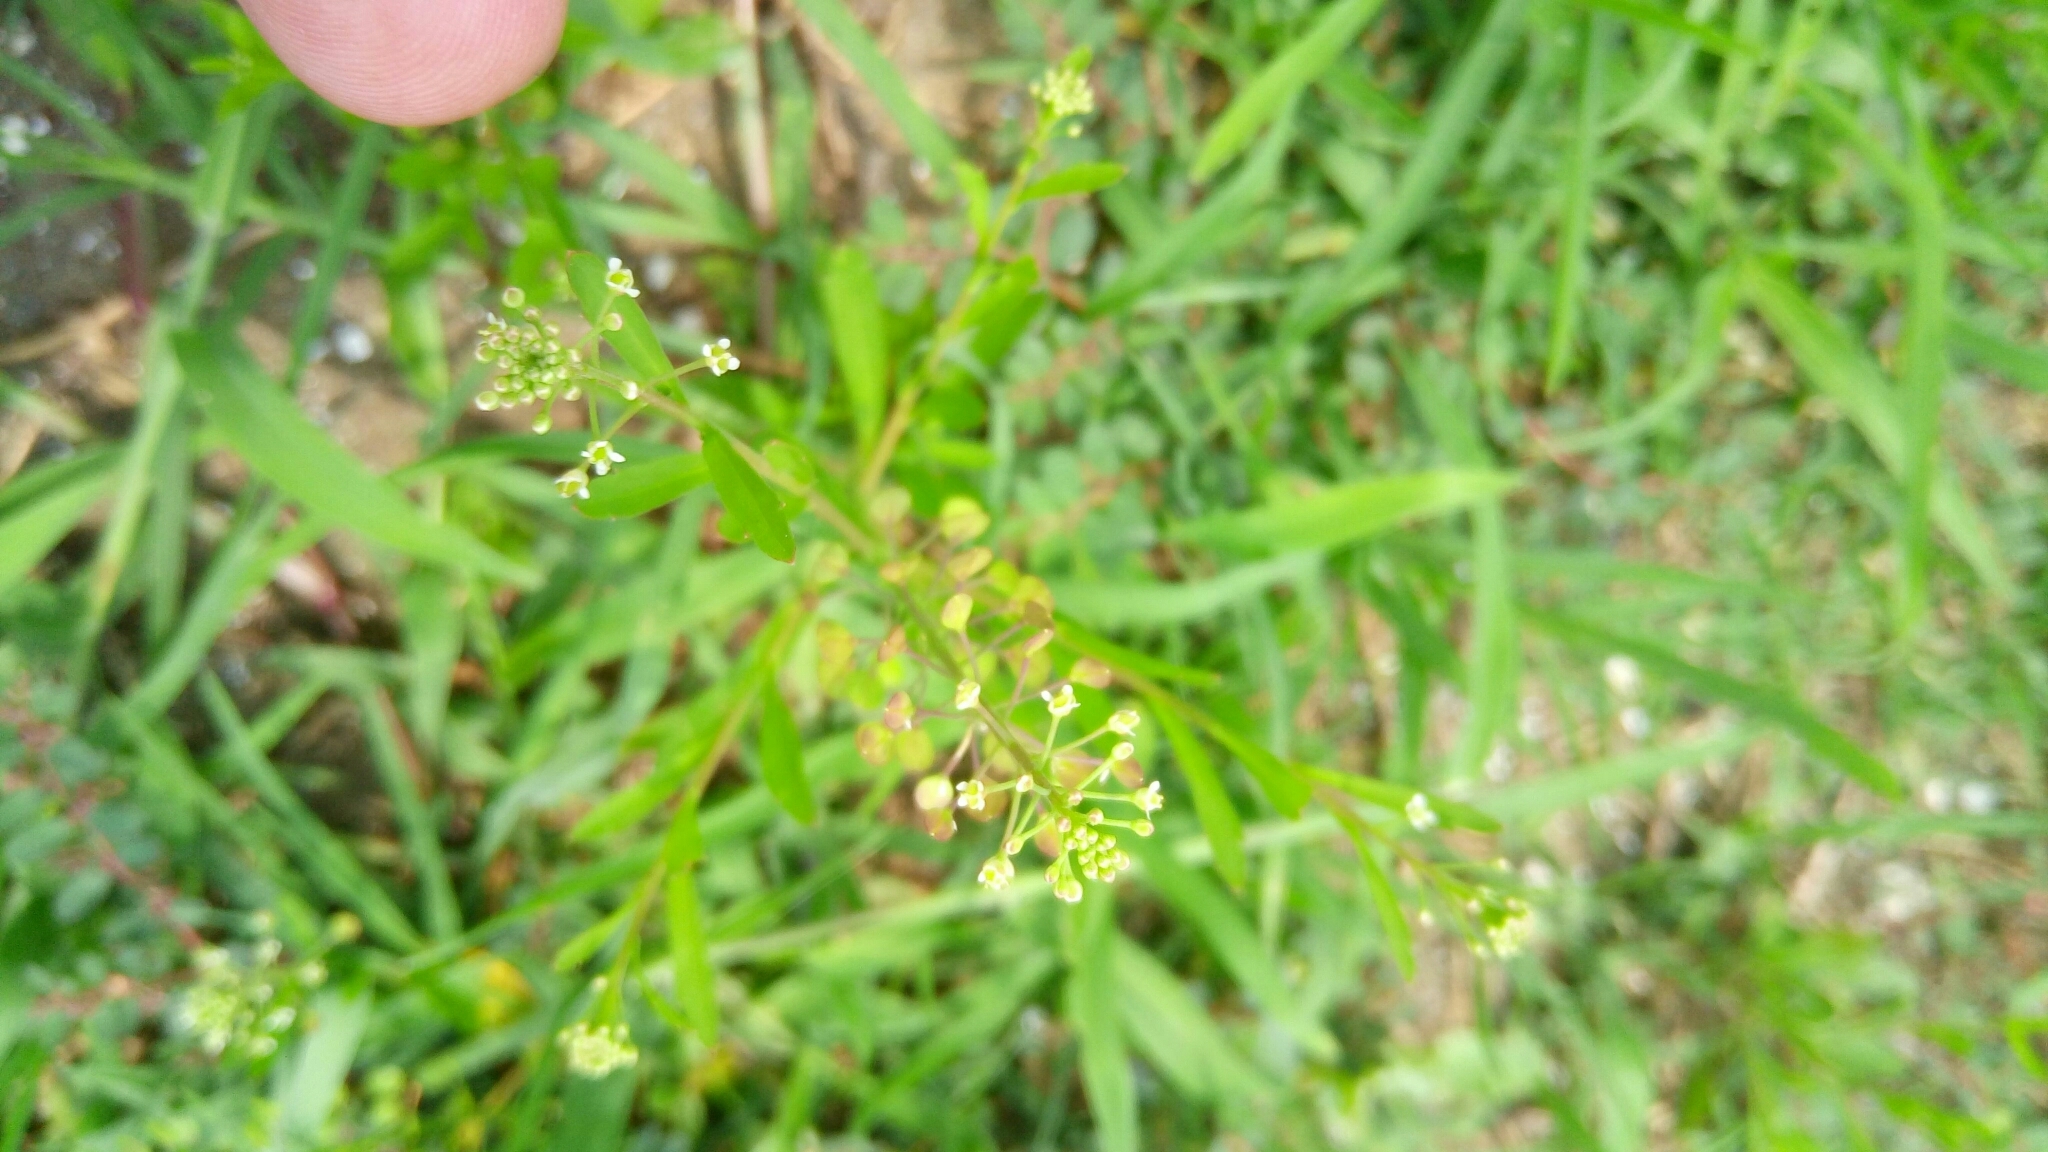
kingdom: Plantae
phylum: Tracheophyta
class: Magnoliopsida
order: Brassicales
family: Brassicaceae
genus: Lepidium
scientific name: Lepidium virginicum
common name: Least pepperwort
